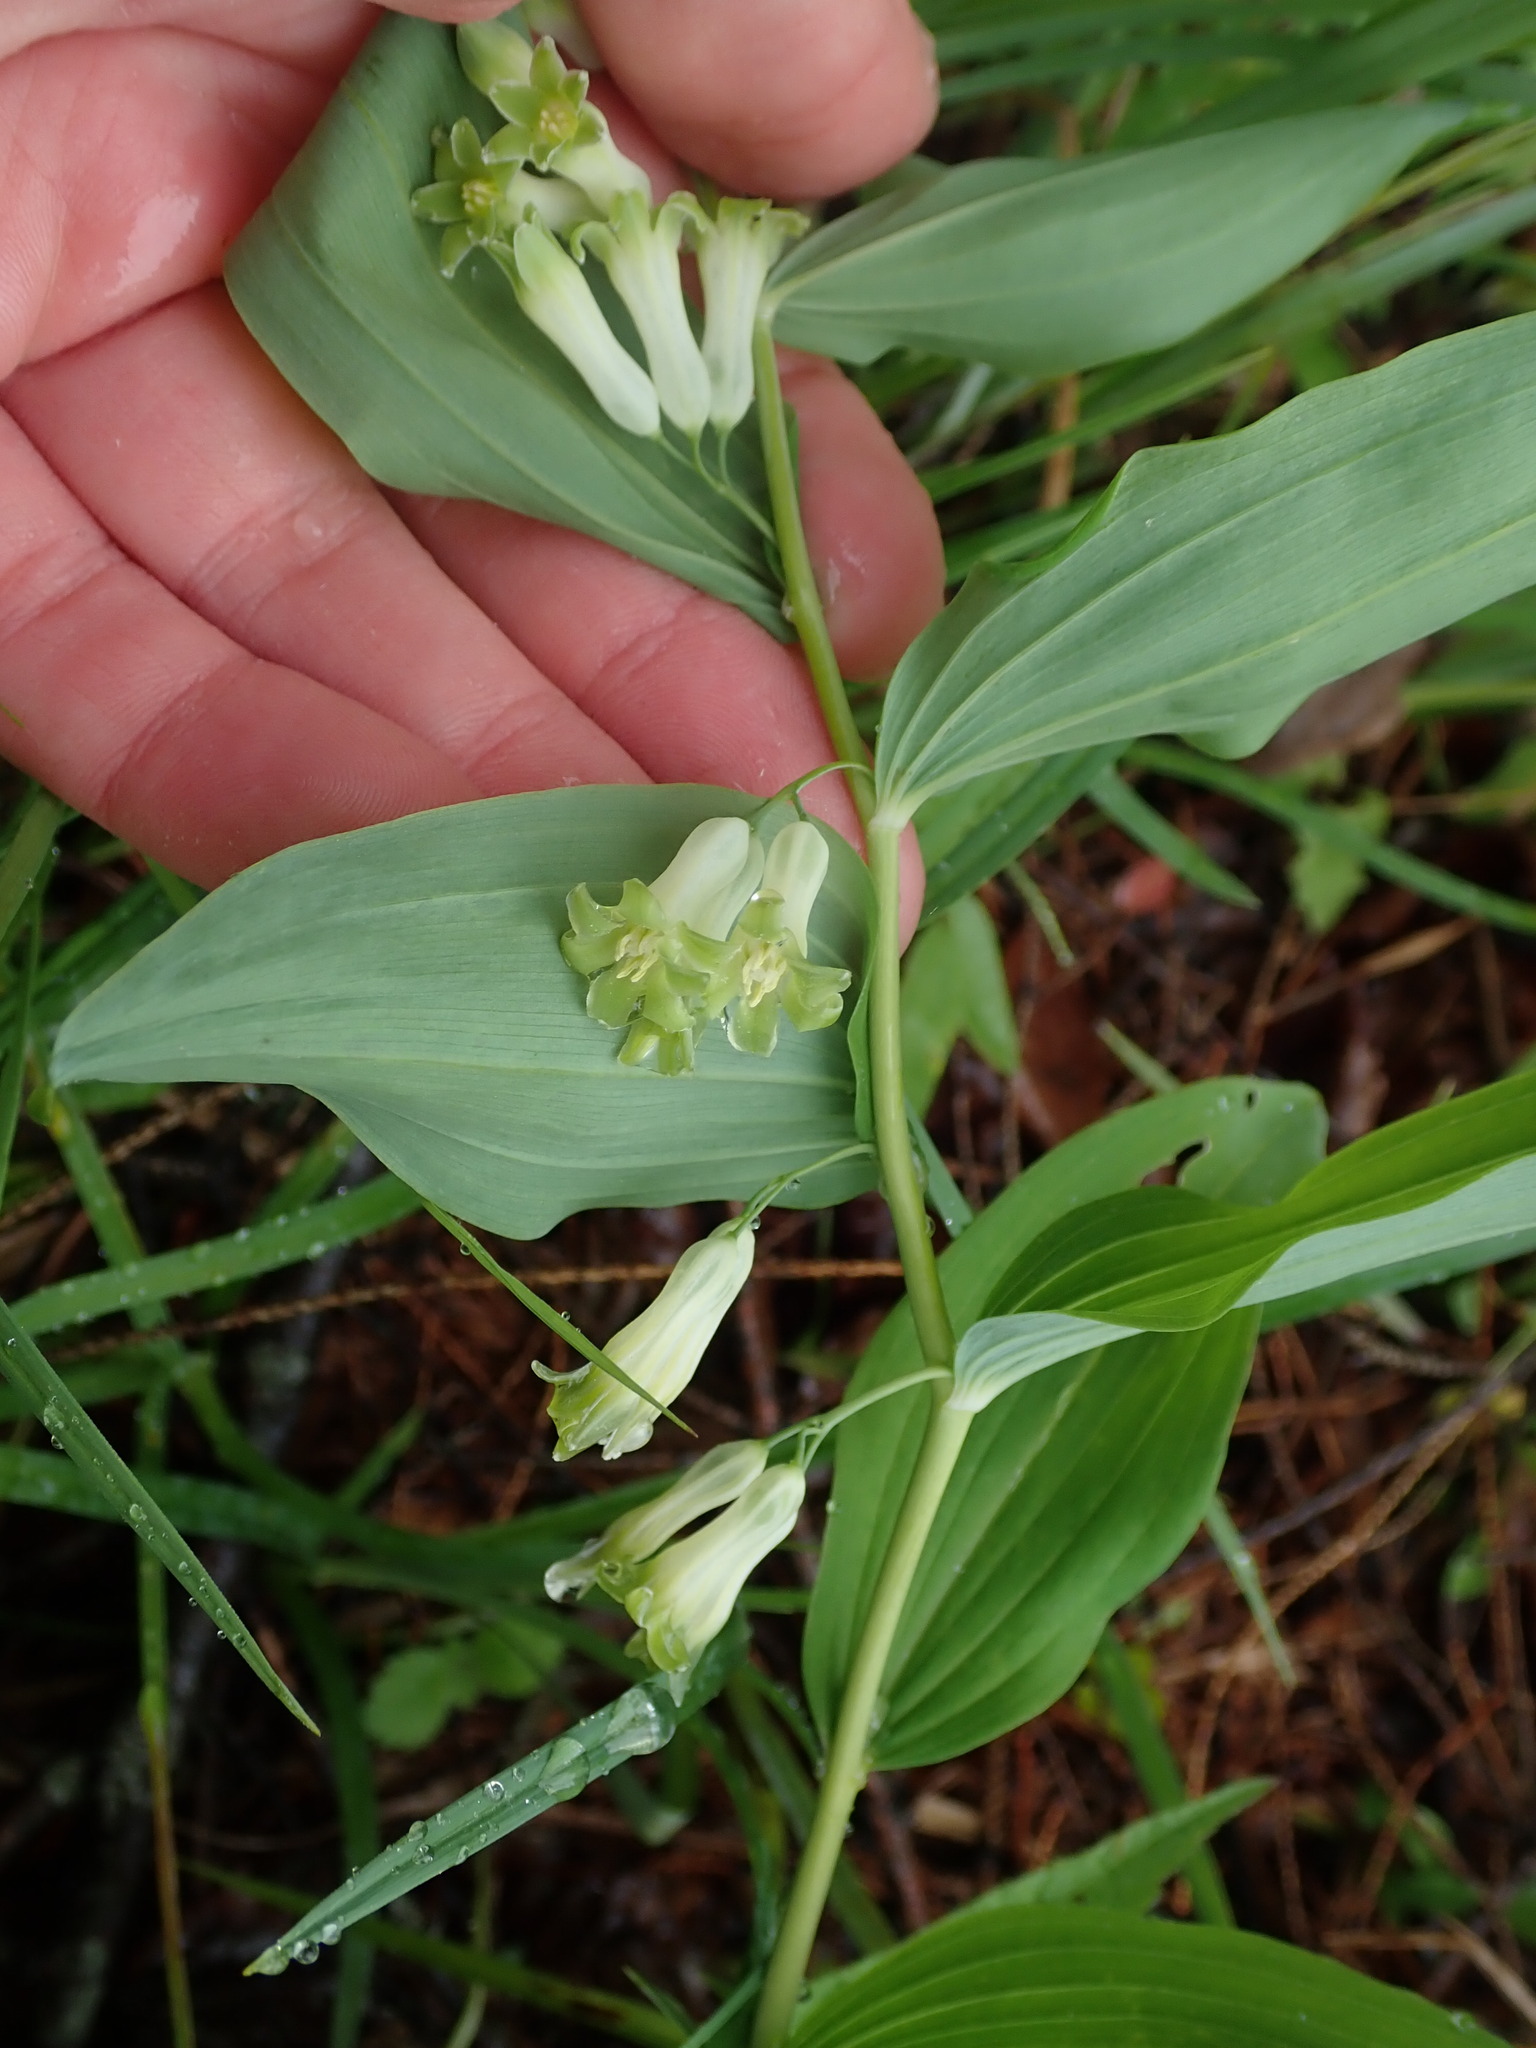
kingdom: Plantae
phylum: Tracheophyta
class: Liliopsida
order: Asparagales
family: Asparagaceae
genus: Polygonatum
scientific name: Polygonatum multiflorum
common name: Solomon's-seal
